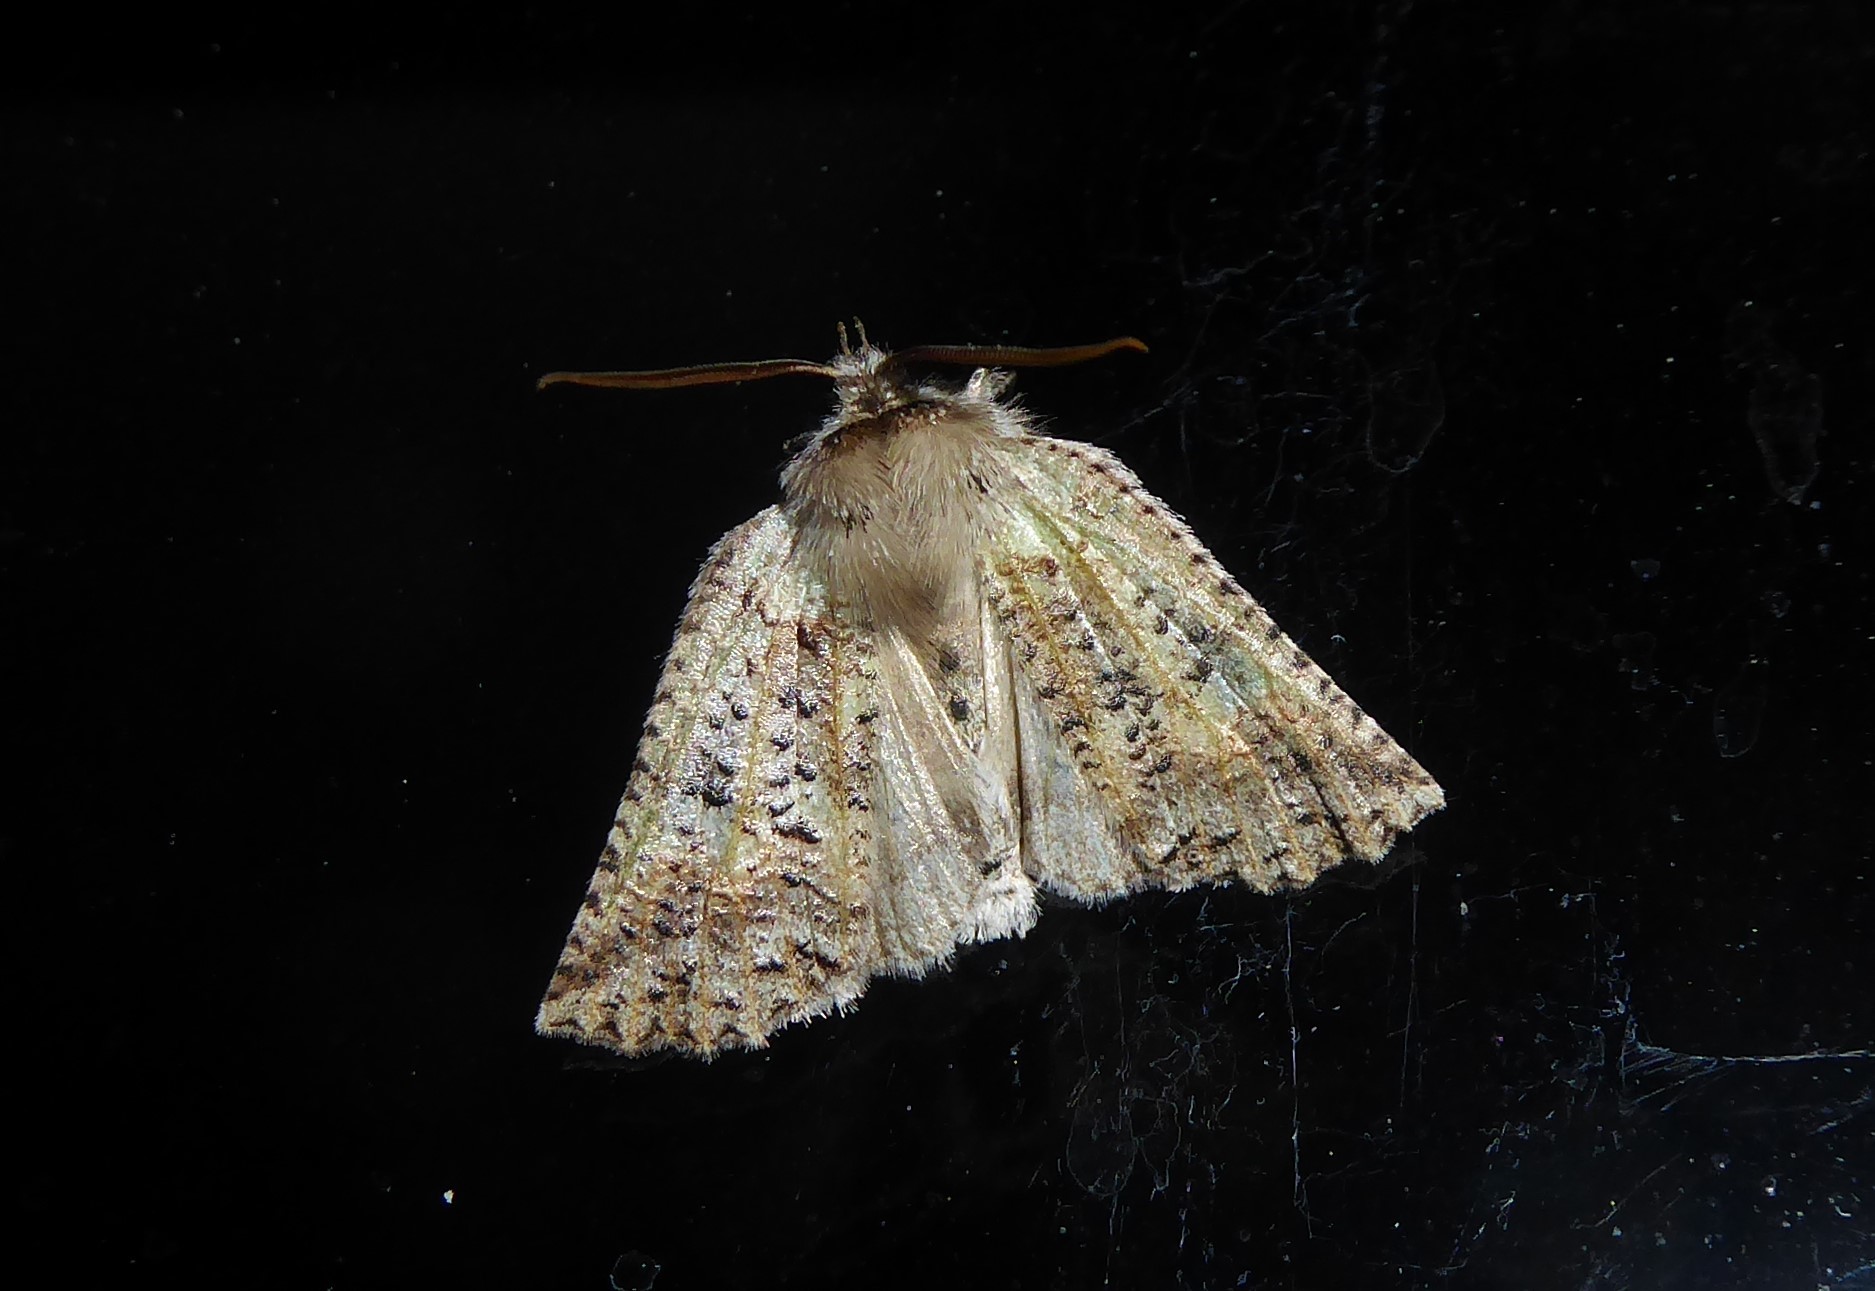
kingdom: Animalia
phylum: Arthropoda
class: Insecta
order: Lepidoptera
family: Geometridae
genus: Declana
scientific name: Declana floccosa
